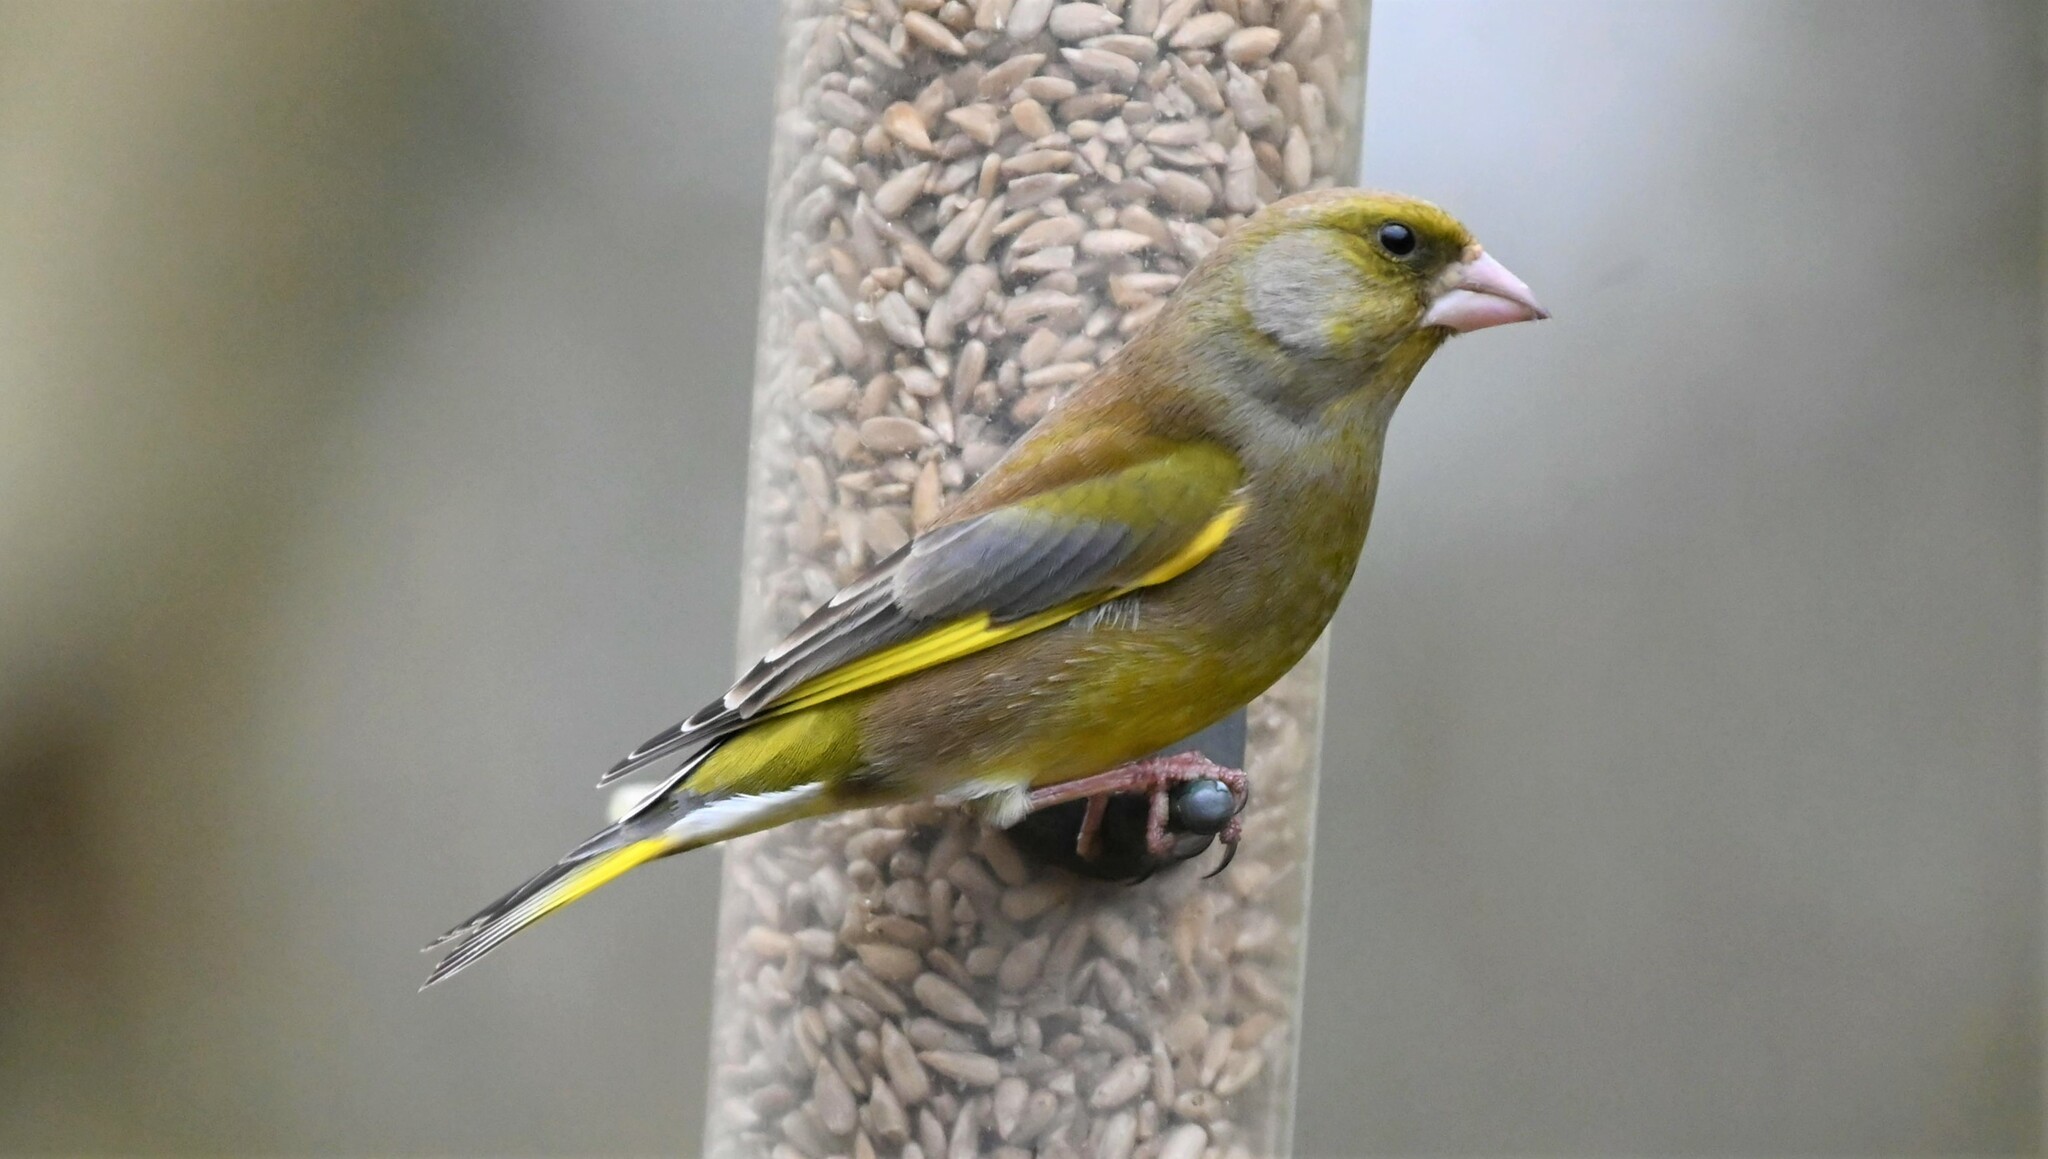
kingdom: Plantae
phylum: Tracheophyta
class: Liliopsida
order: Poales
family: Poaceae
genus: Chloris
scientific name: Chloris chloris
